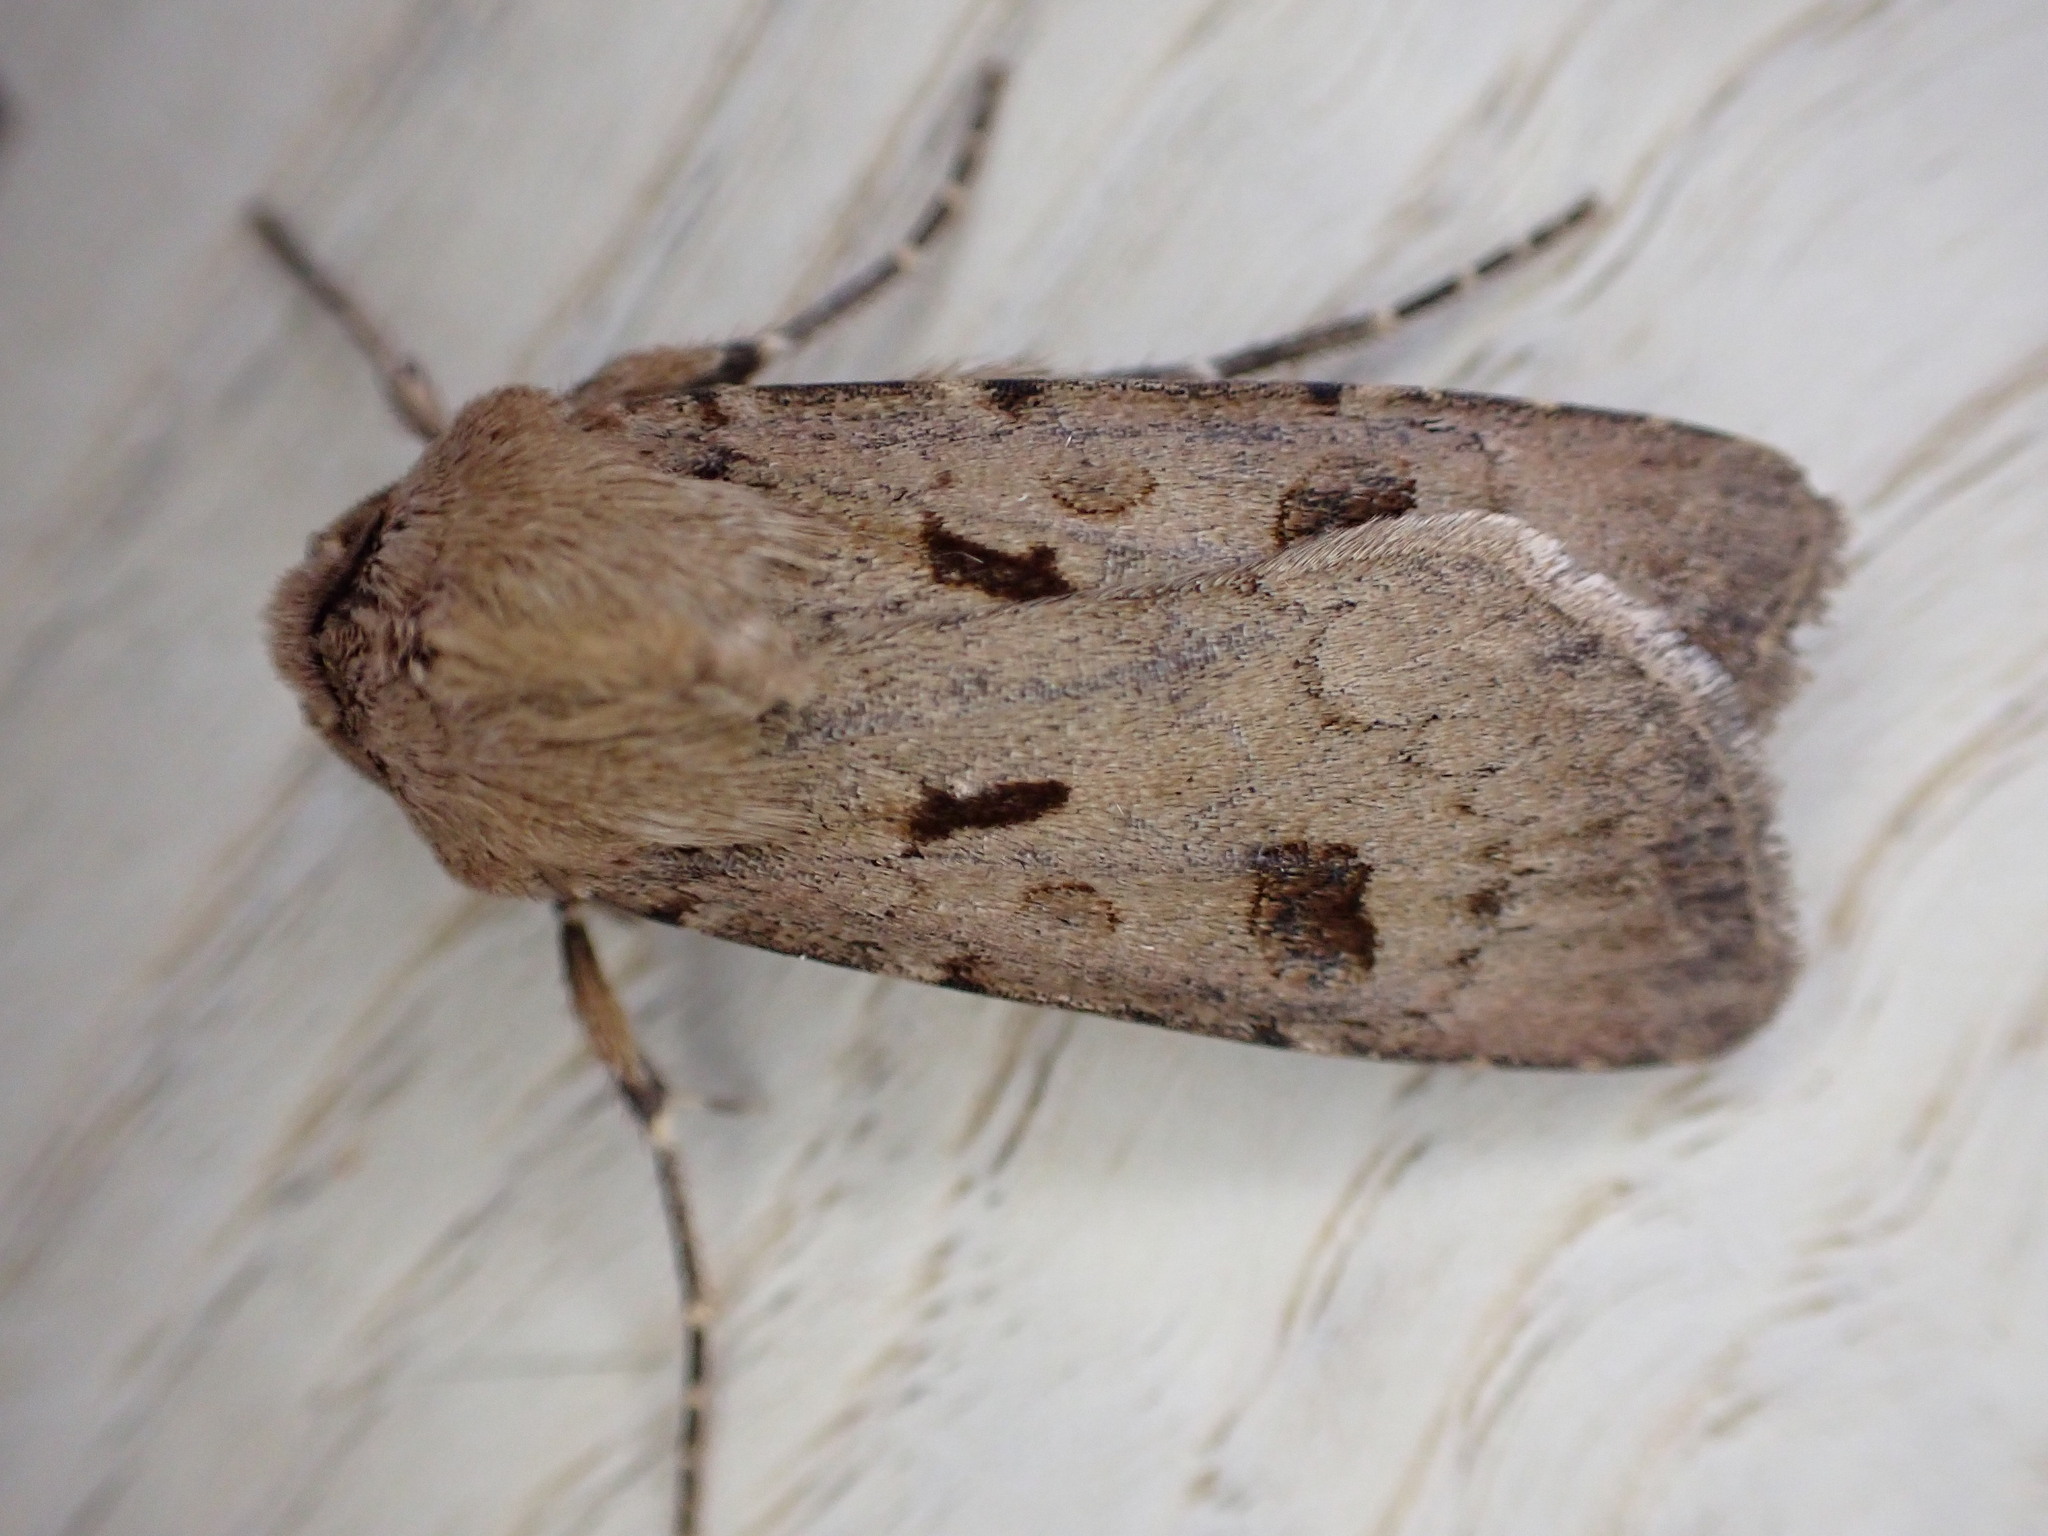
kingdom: Animalia
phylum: Arthropoda
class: Insecta
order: Lepidoptera
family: Noctuidae
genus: Agrotis
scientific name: Agrotis exclamationis
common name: Heart and dart
